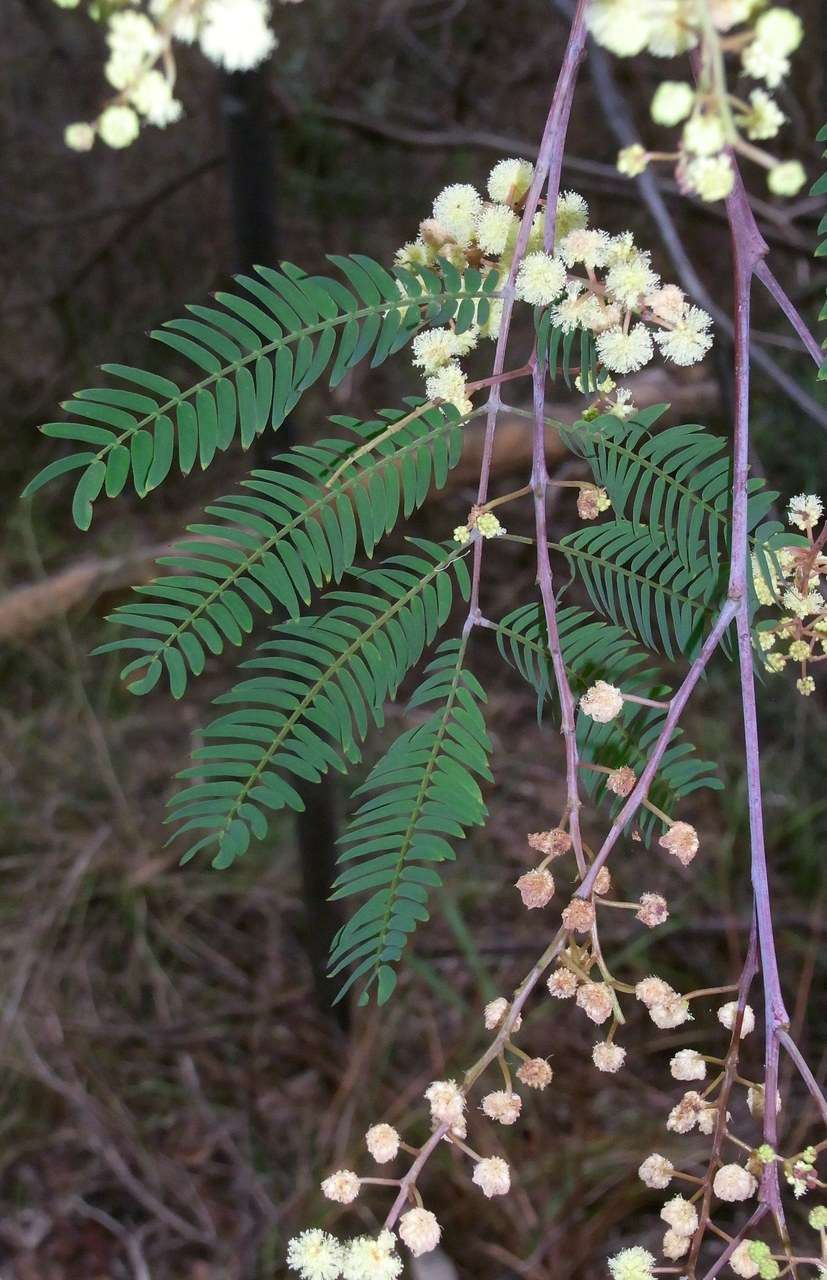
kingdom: Plantae
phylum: Tracheophyta
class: Magnoliopsida
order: Fabales
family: Fabaceae
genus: Acacia
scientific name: Acacia elata
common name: Cedar wattle
